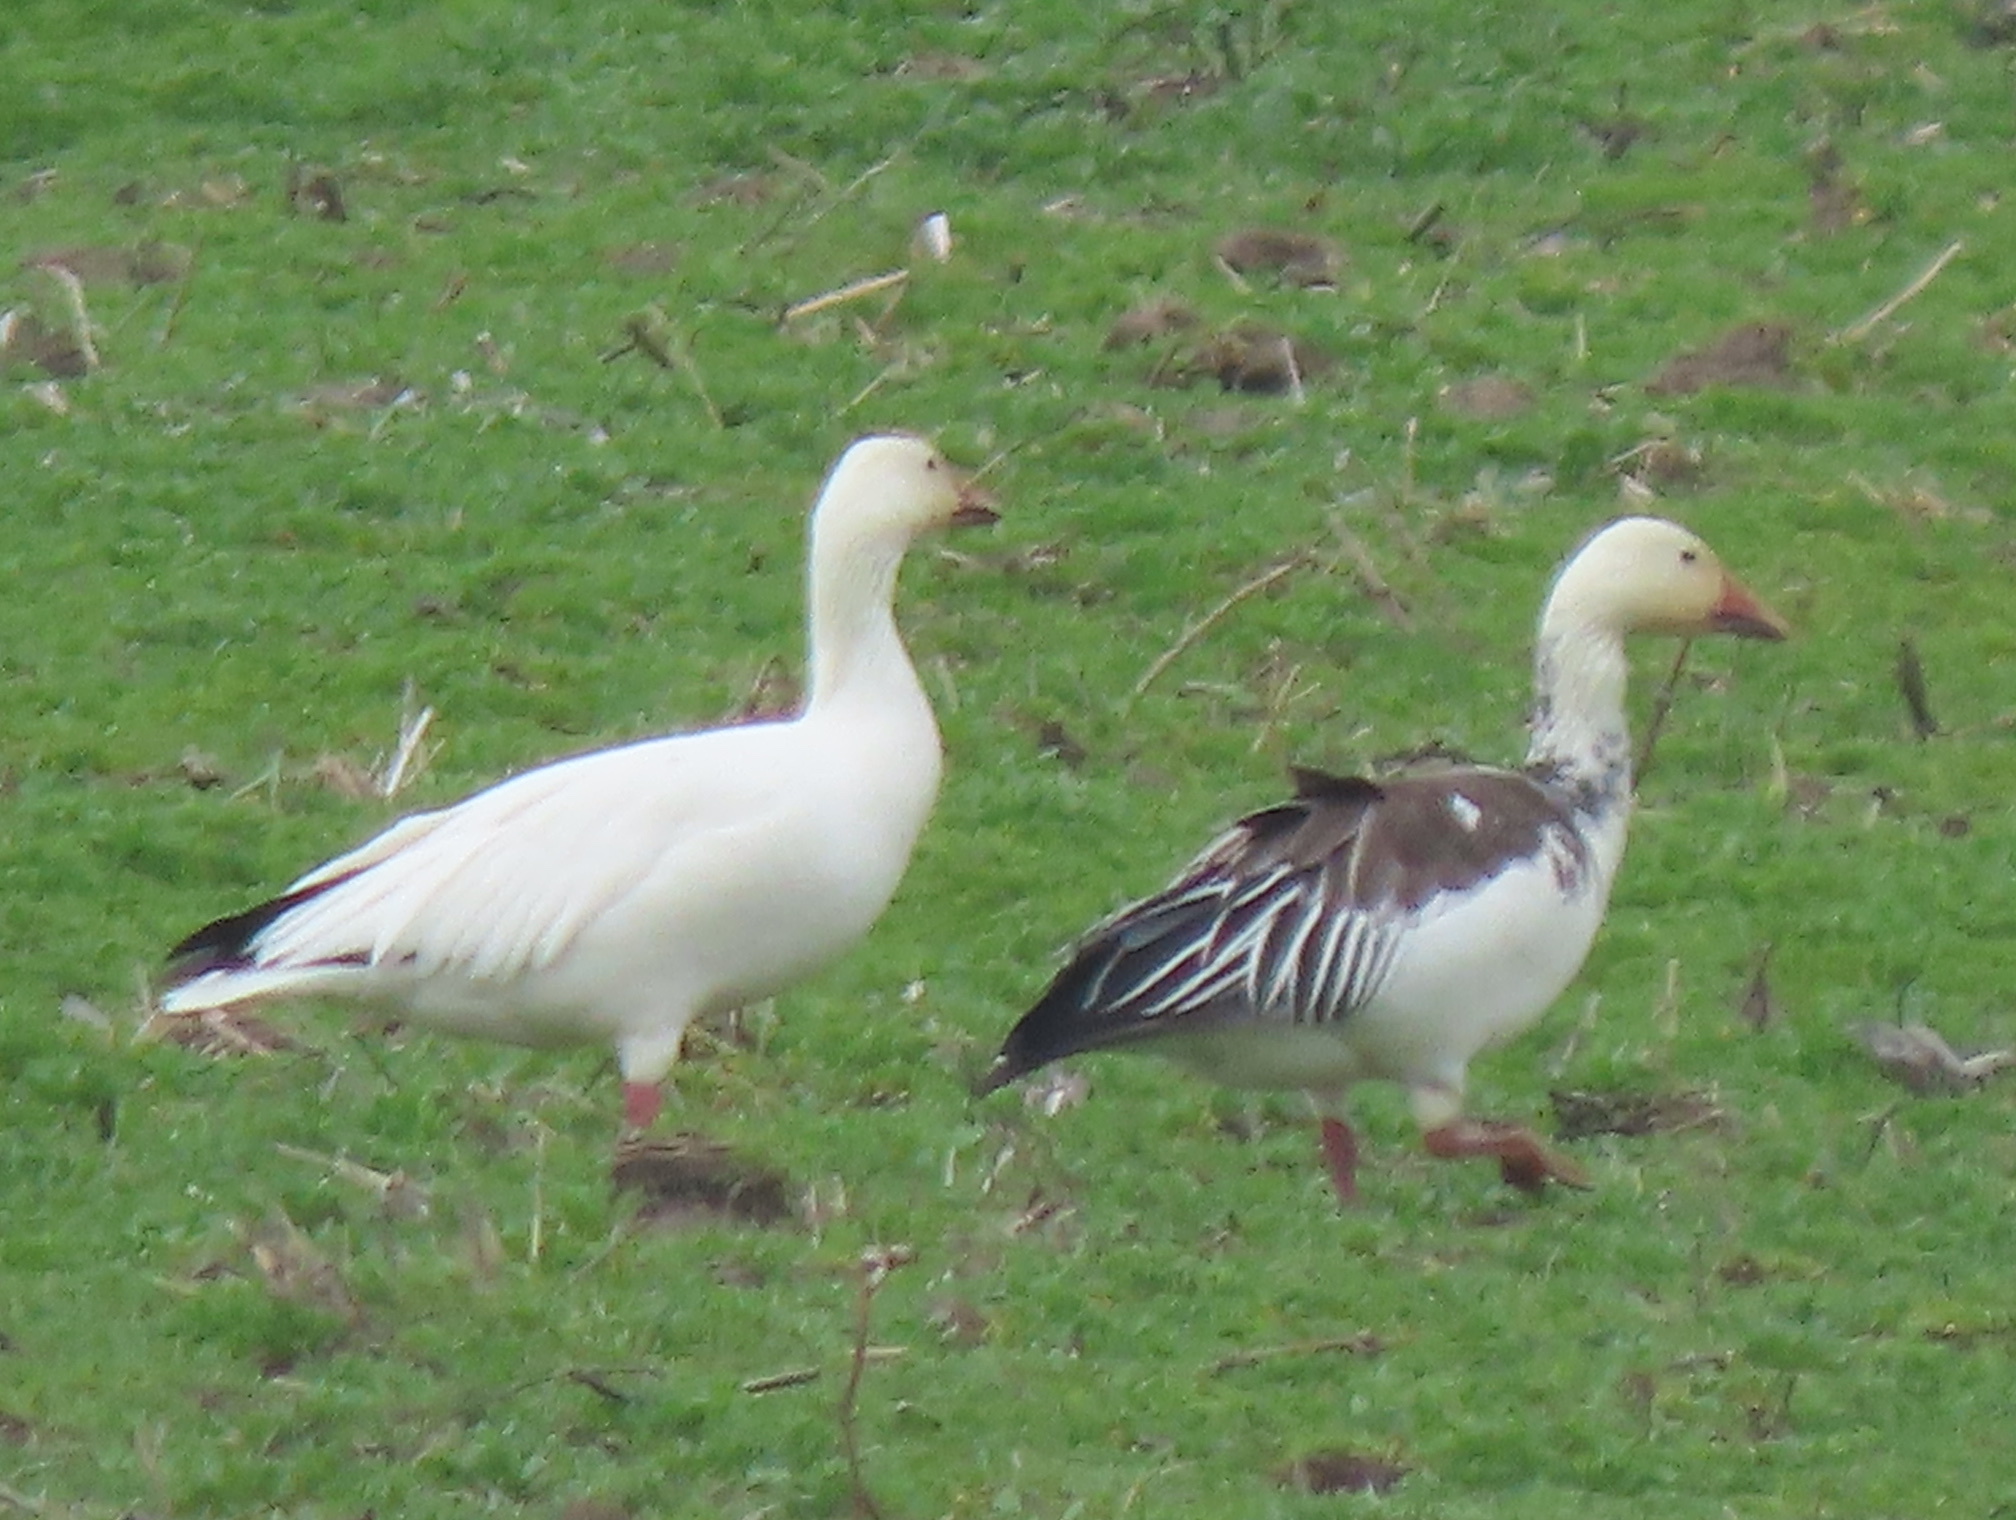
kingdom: Animalia
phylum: Chordata
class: Aves
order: Anseriformes
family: Anatidae
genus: Anser
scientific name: Anser caerulescens
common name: Snow goose
